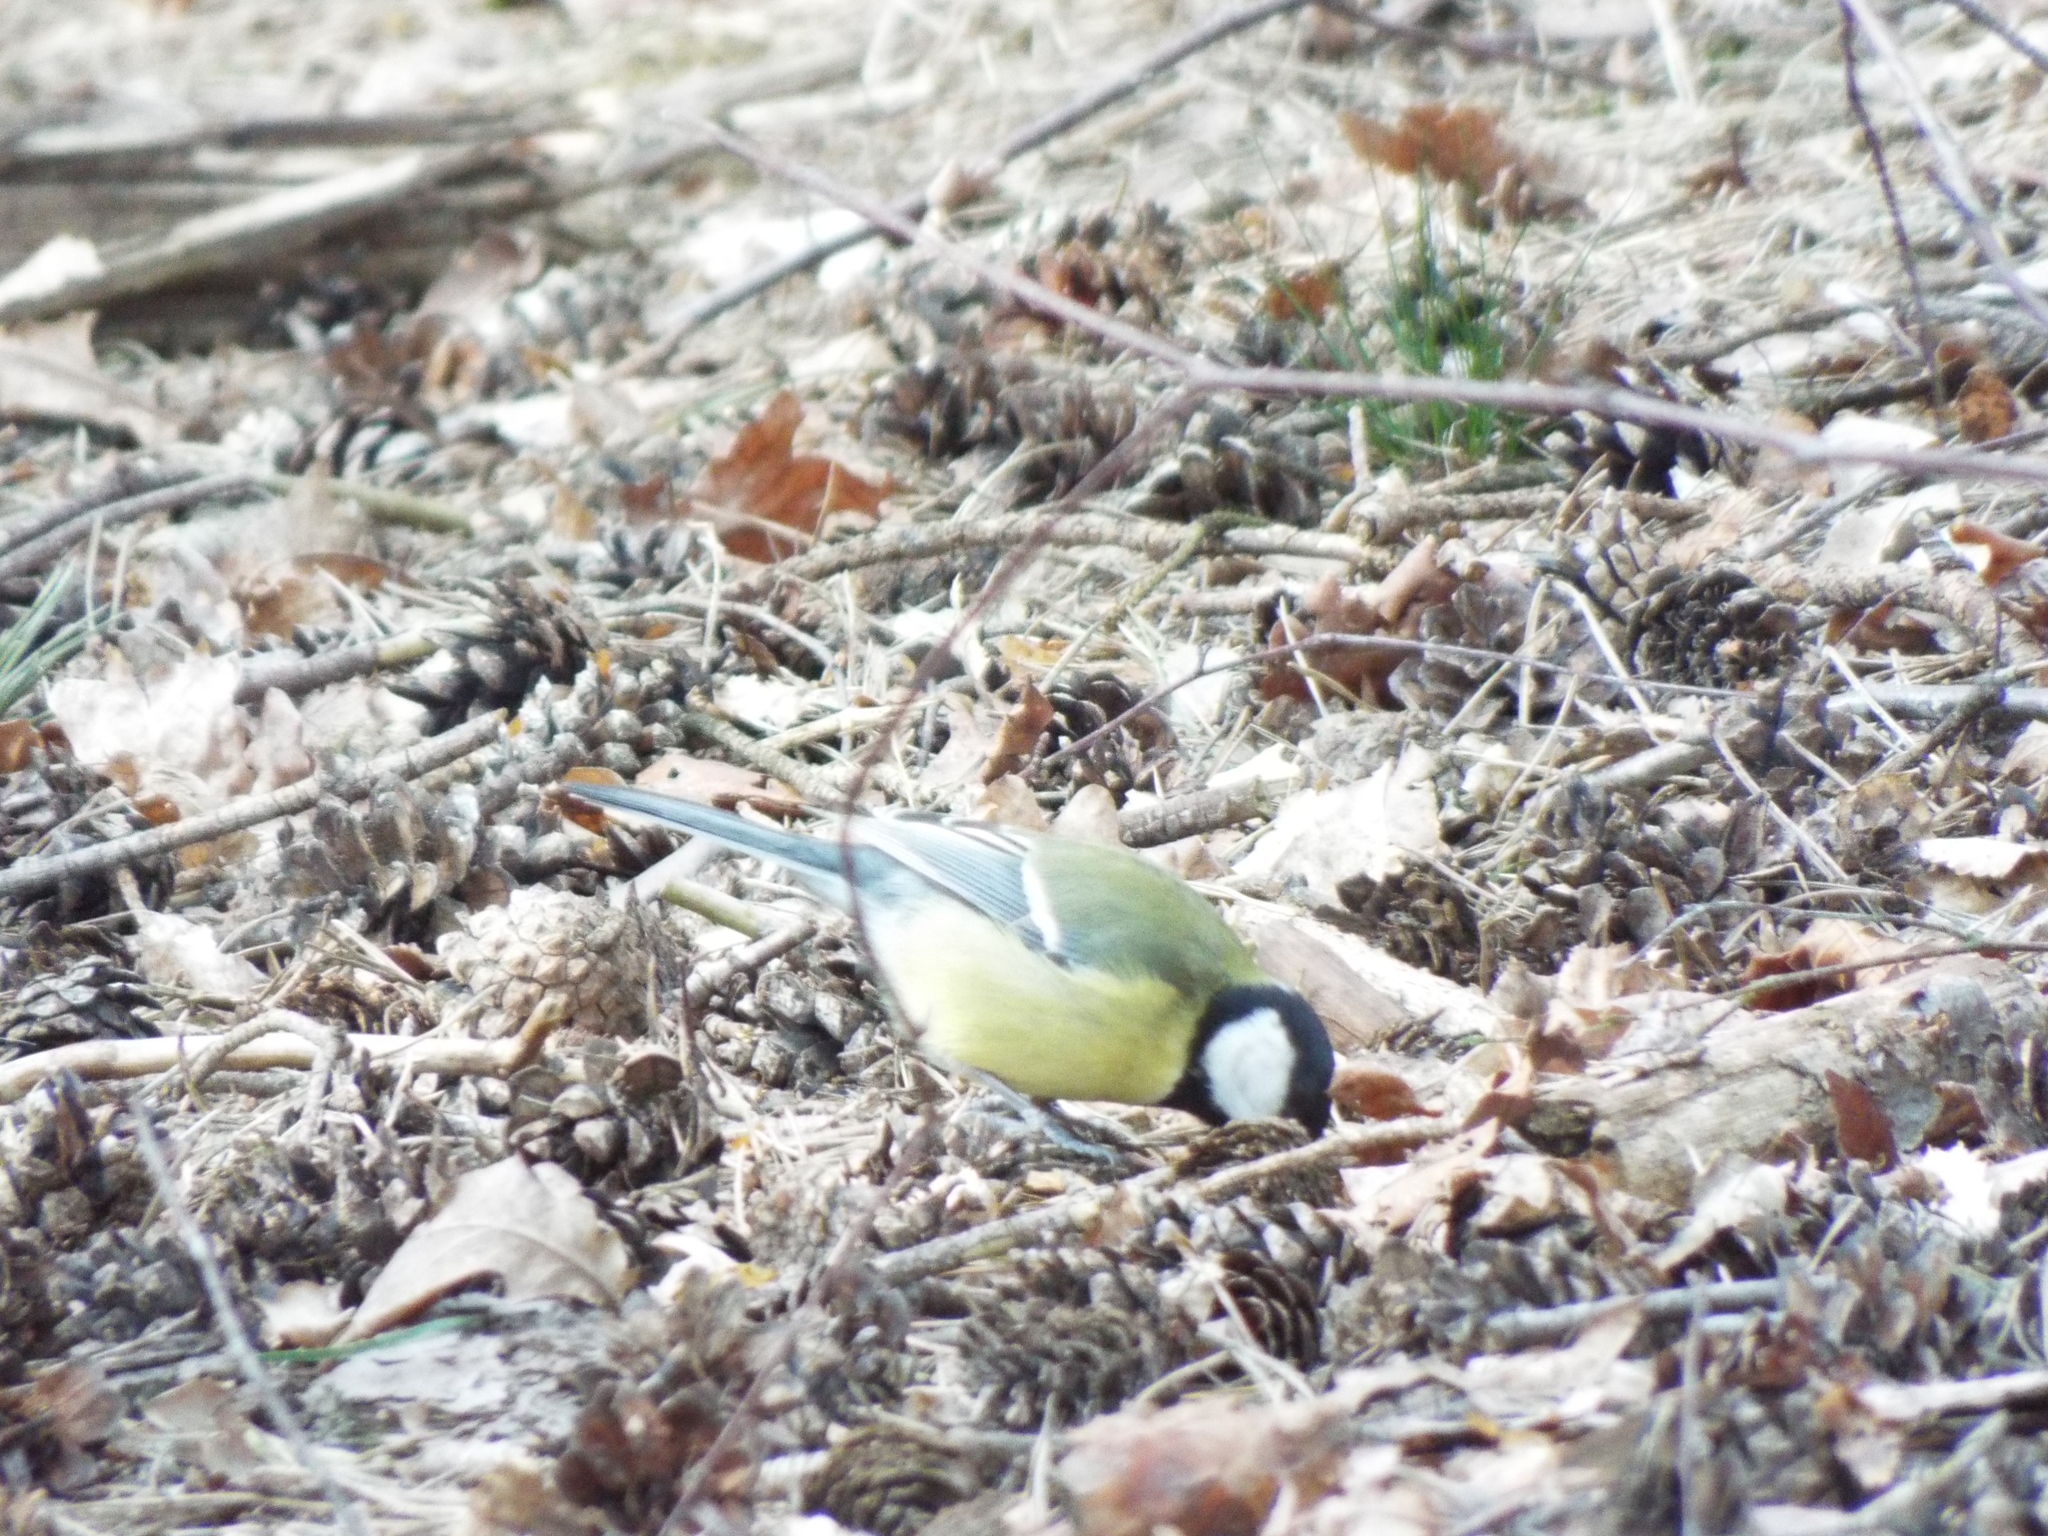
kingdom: Animalia
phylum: Chordata
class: Aves
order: Passeriformes
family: Paridae
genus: Parus
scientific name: Parus major
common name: Great tit
